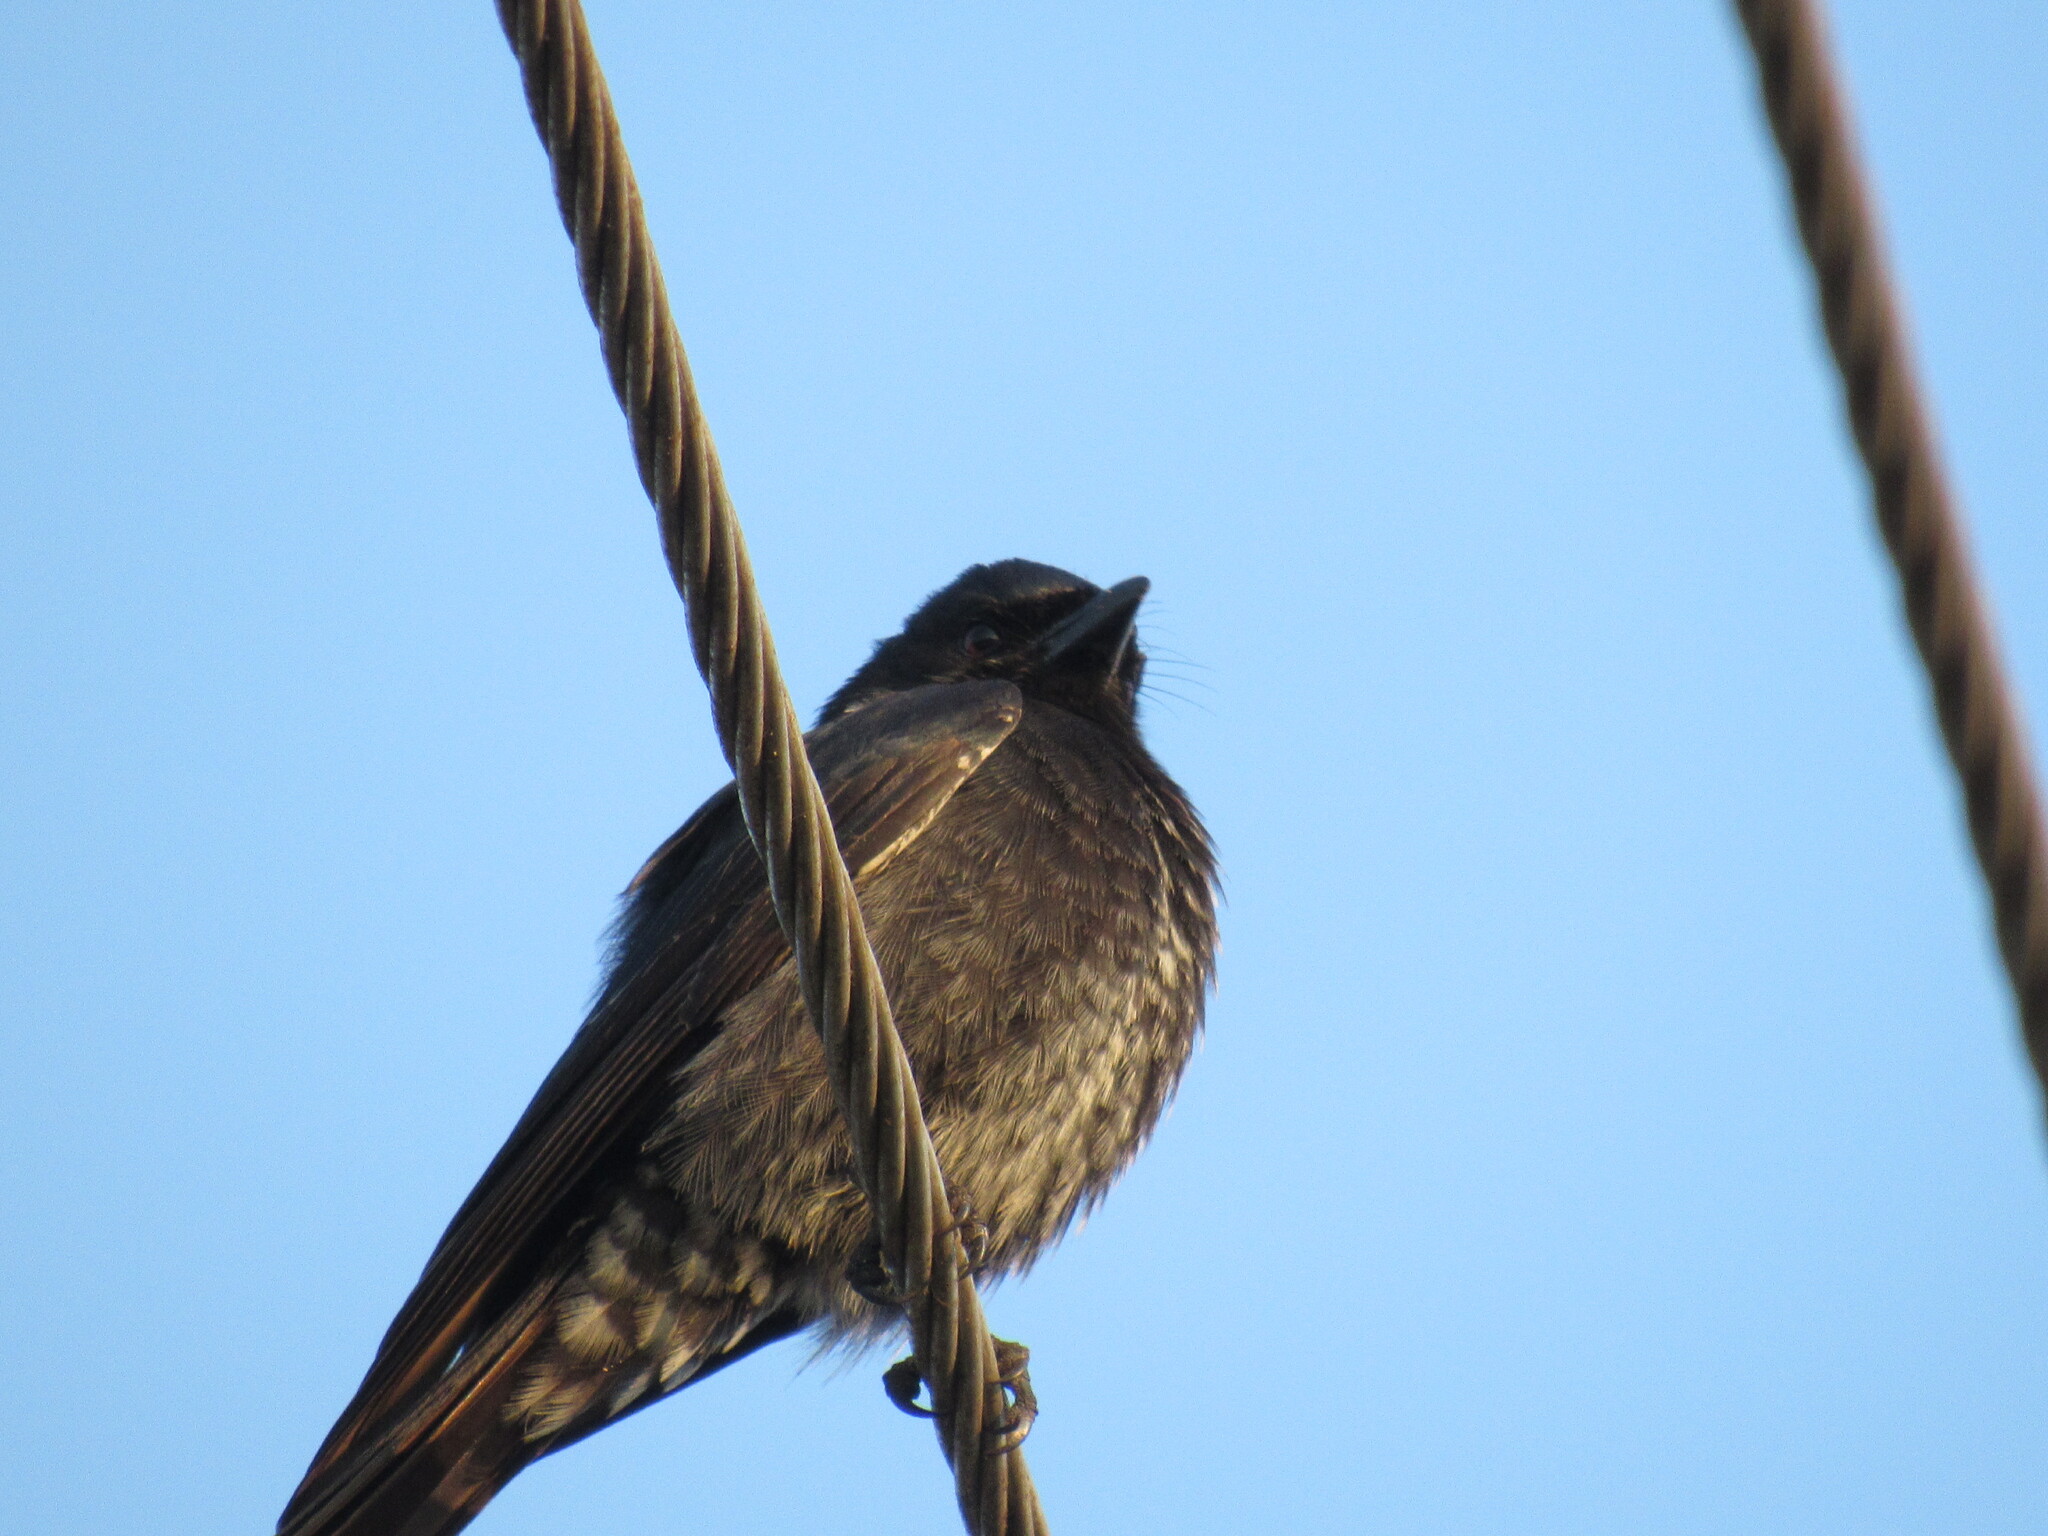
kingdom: Animalia
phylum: Chordata
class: Aves
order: Passeriformes
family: Dicruridae
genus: Dicrurus
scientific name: Dicrurus macrocercus
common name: Black drongo
